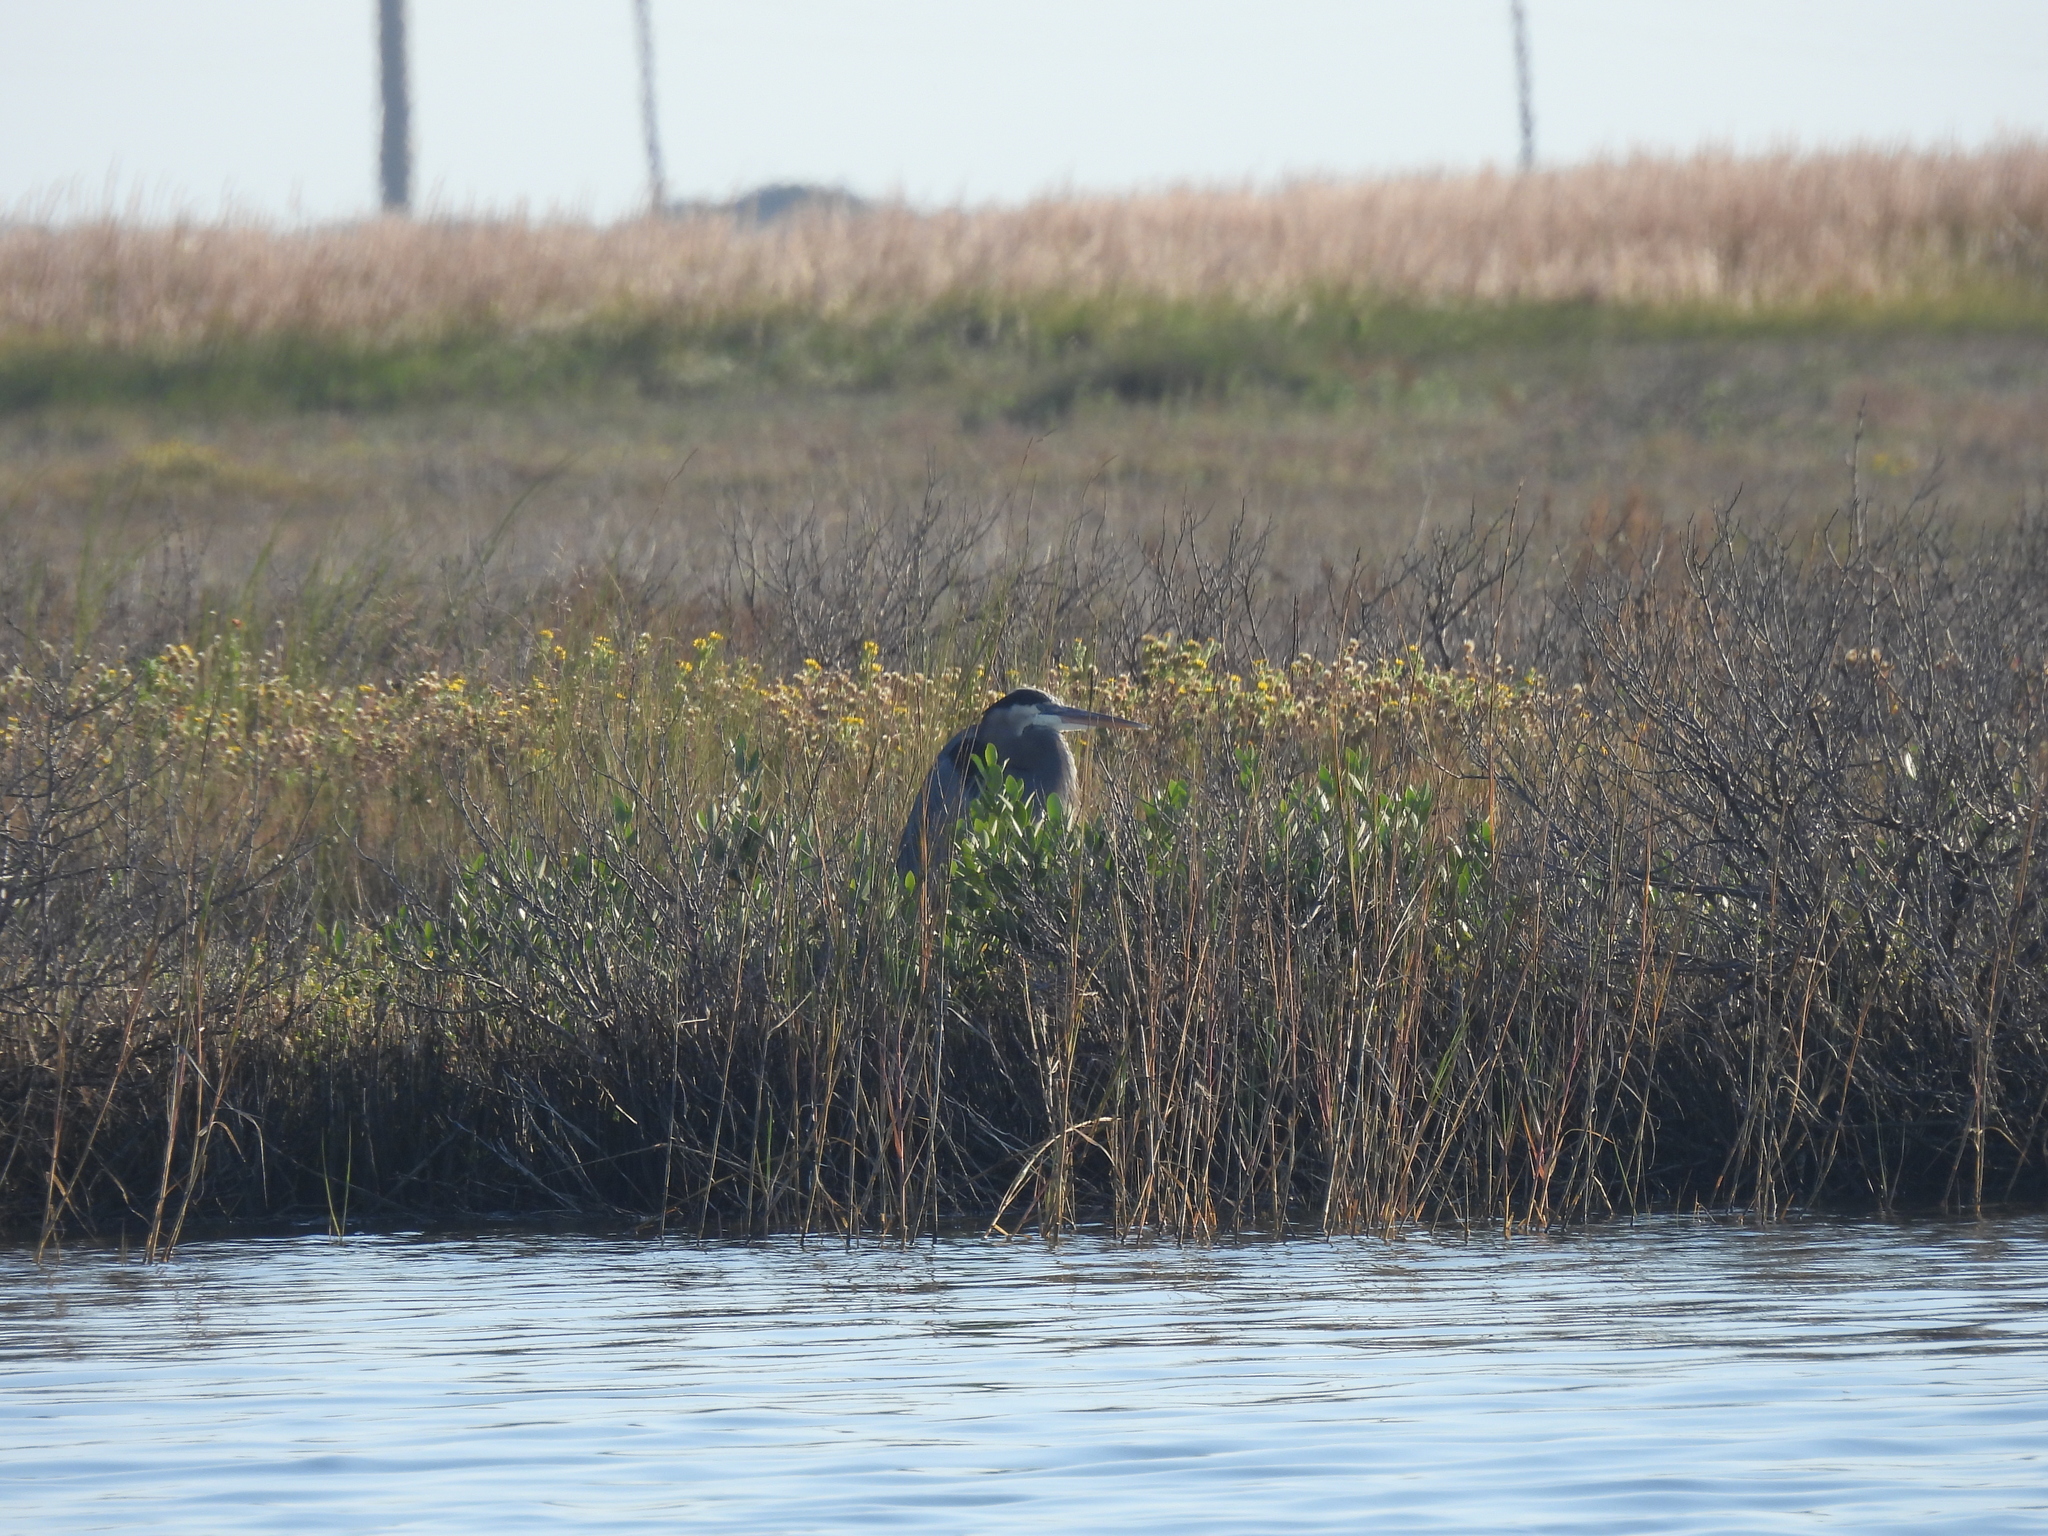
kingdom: Animalia
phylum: Chordata
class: Aves
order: Pelecaniformes
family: Ardeidae
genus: Ardea
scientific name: Ardea herodias
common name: Great blue heron
